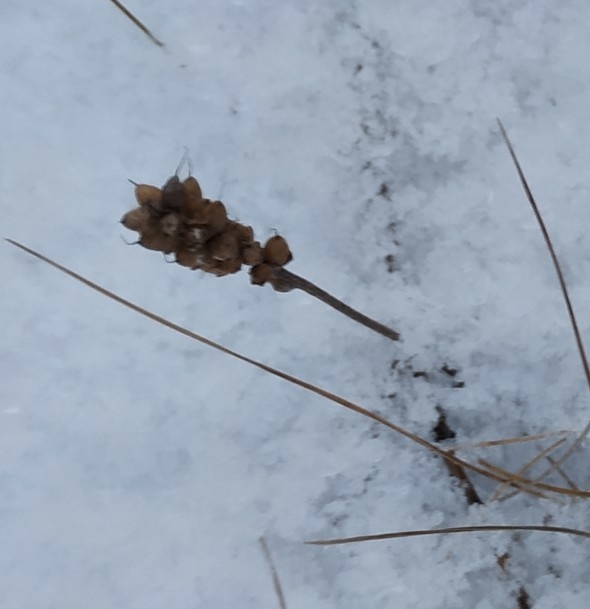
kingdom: Plantae
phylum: Tracheophyta
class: Magnoliopsida
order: Lamiales
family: Plantaginaceae
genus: Plantago
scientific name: Plantago major
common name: Common plantain
